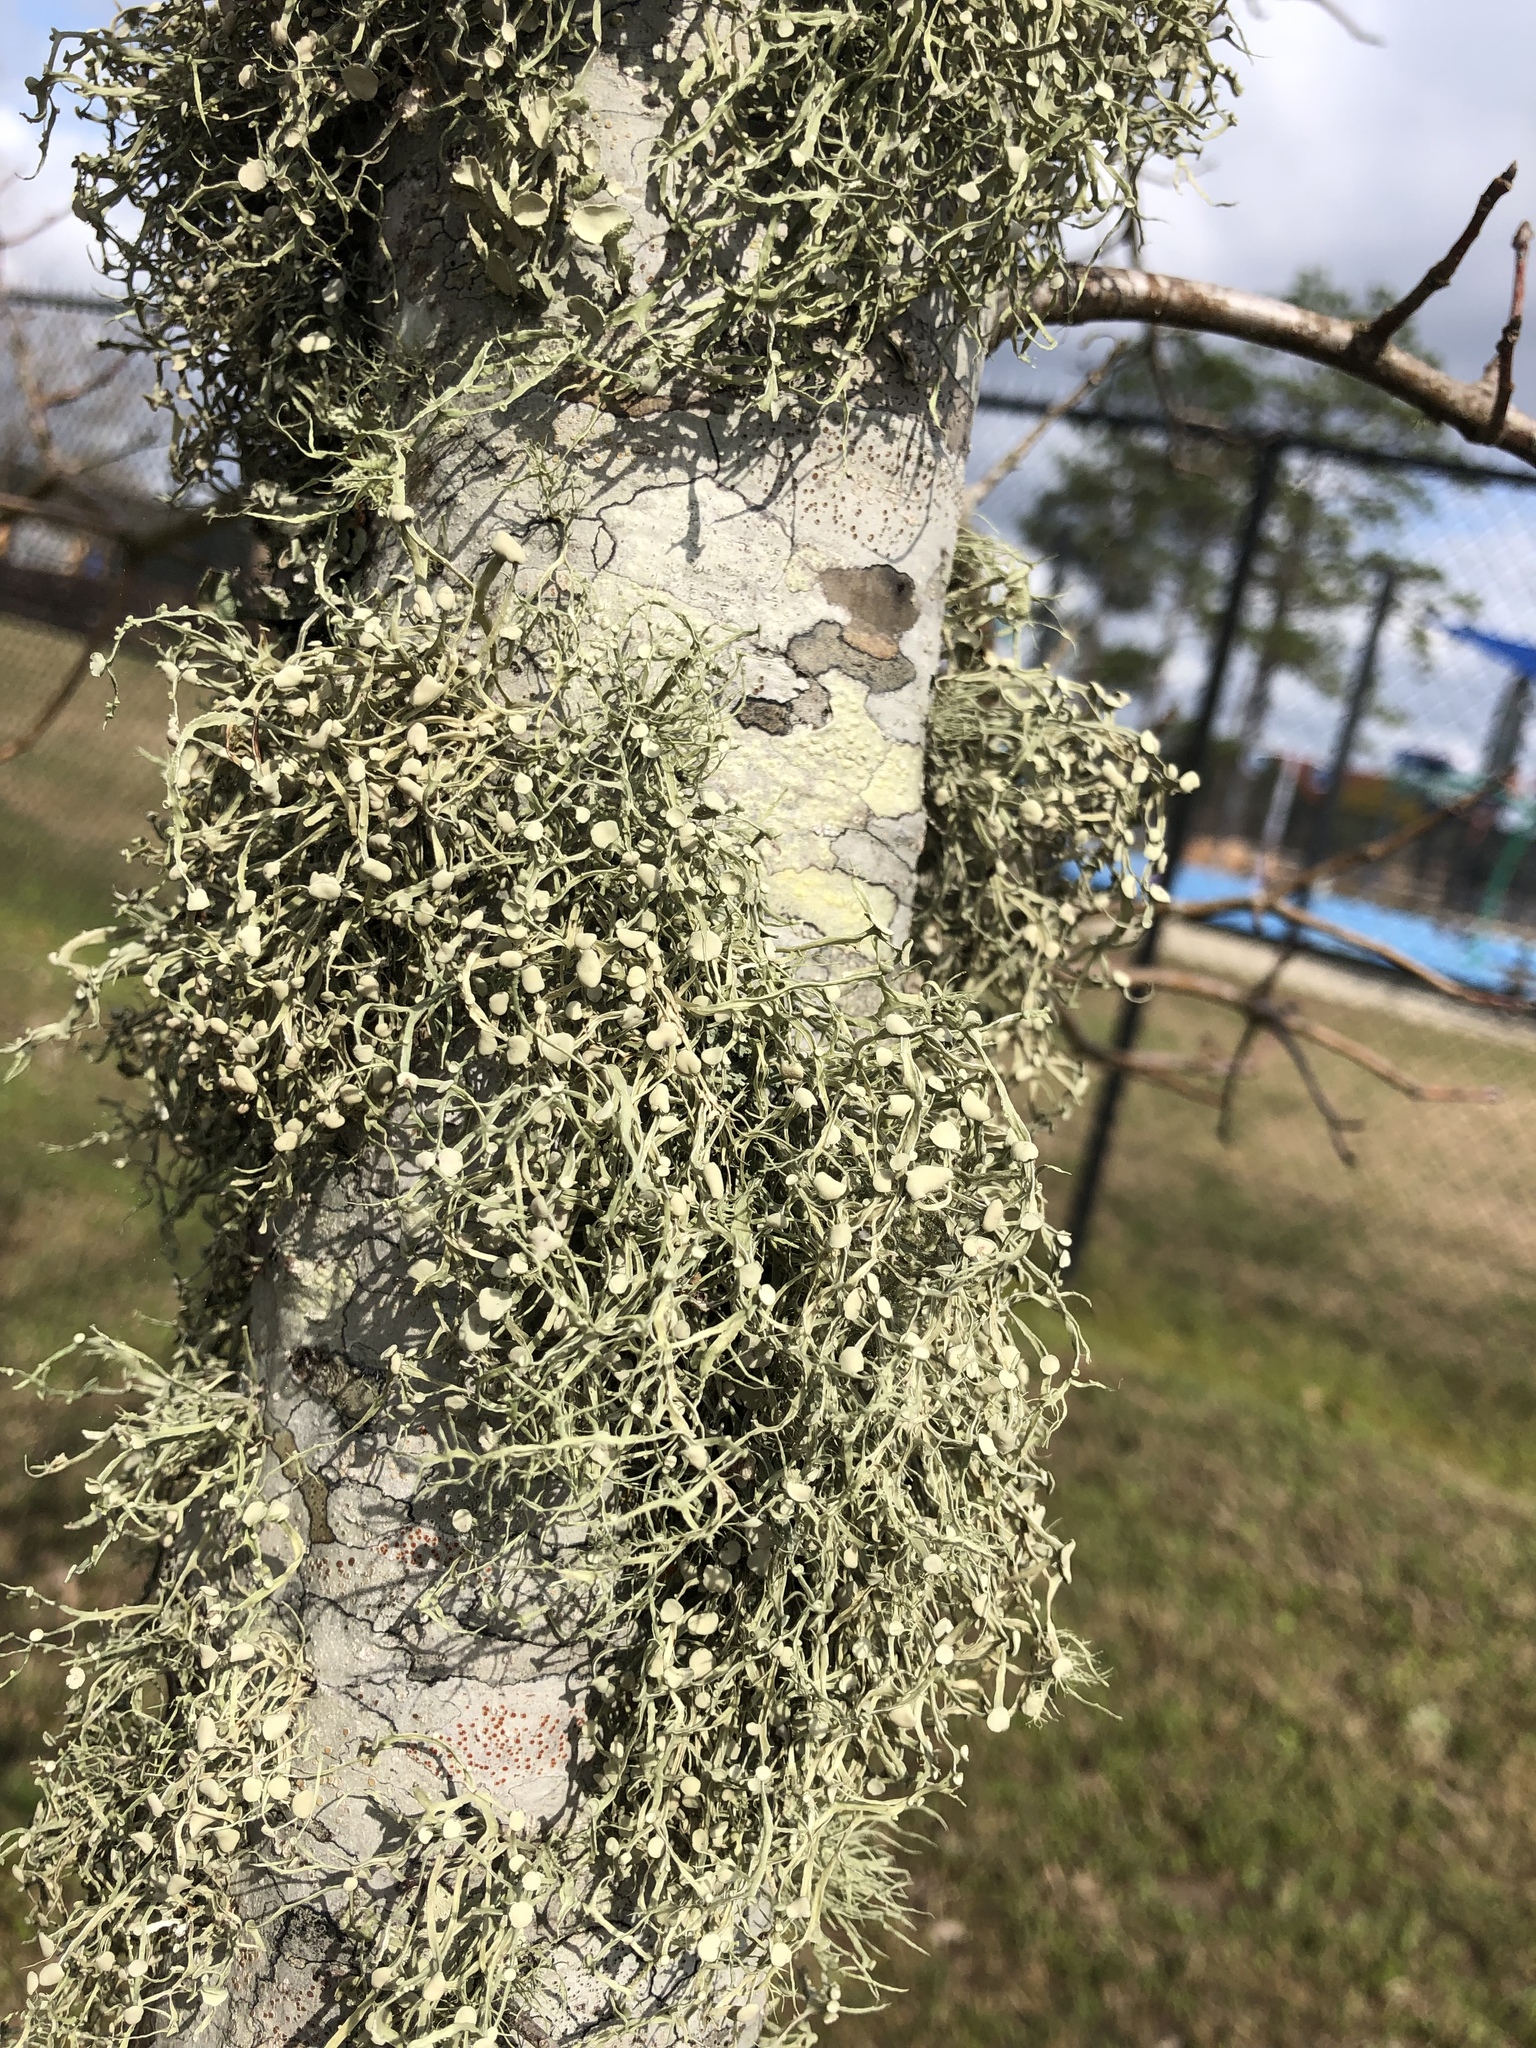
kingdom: Fungi
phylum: Ascomycota
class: Lecanoromycetes
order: Lecanorales
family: Parmeliaceae
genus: Usnea
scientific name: Usnea strigosa
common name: Bushy beard lichen
